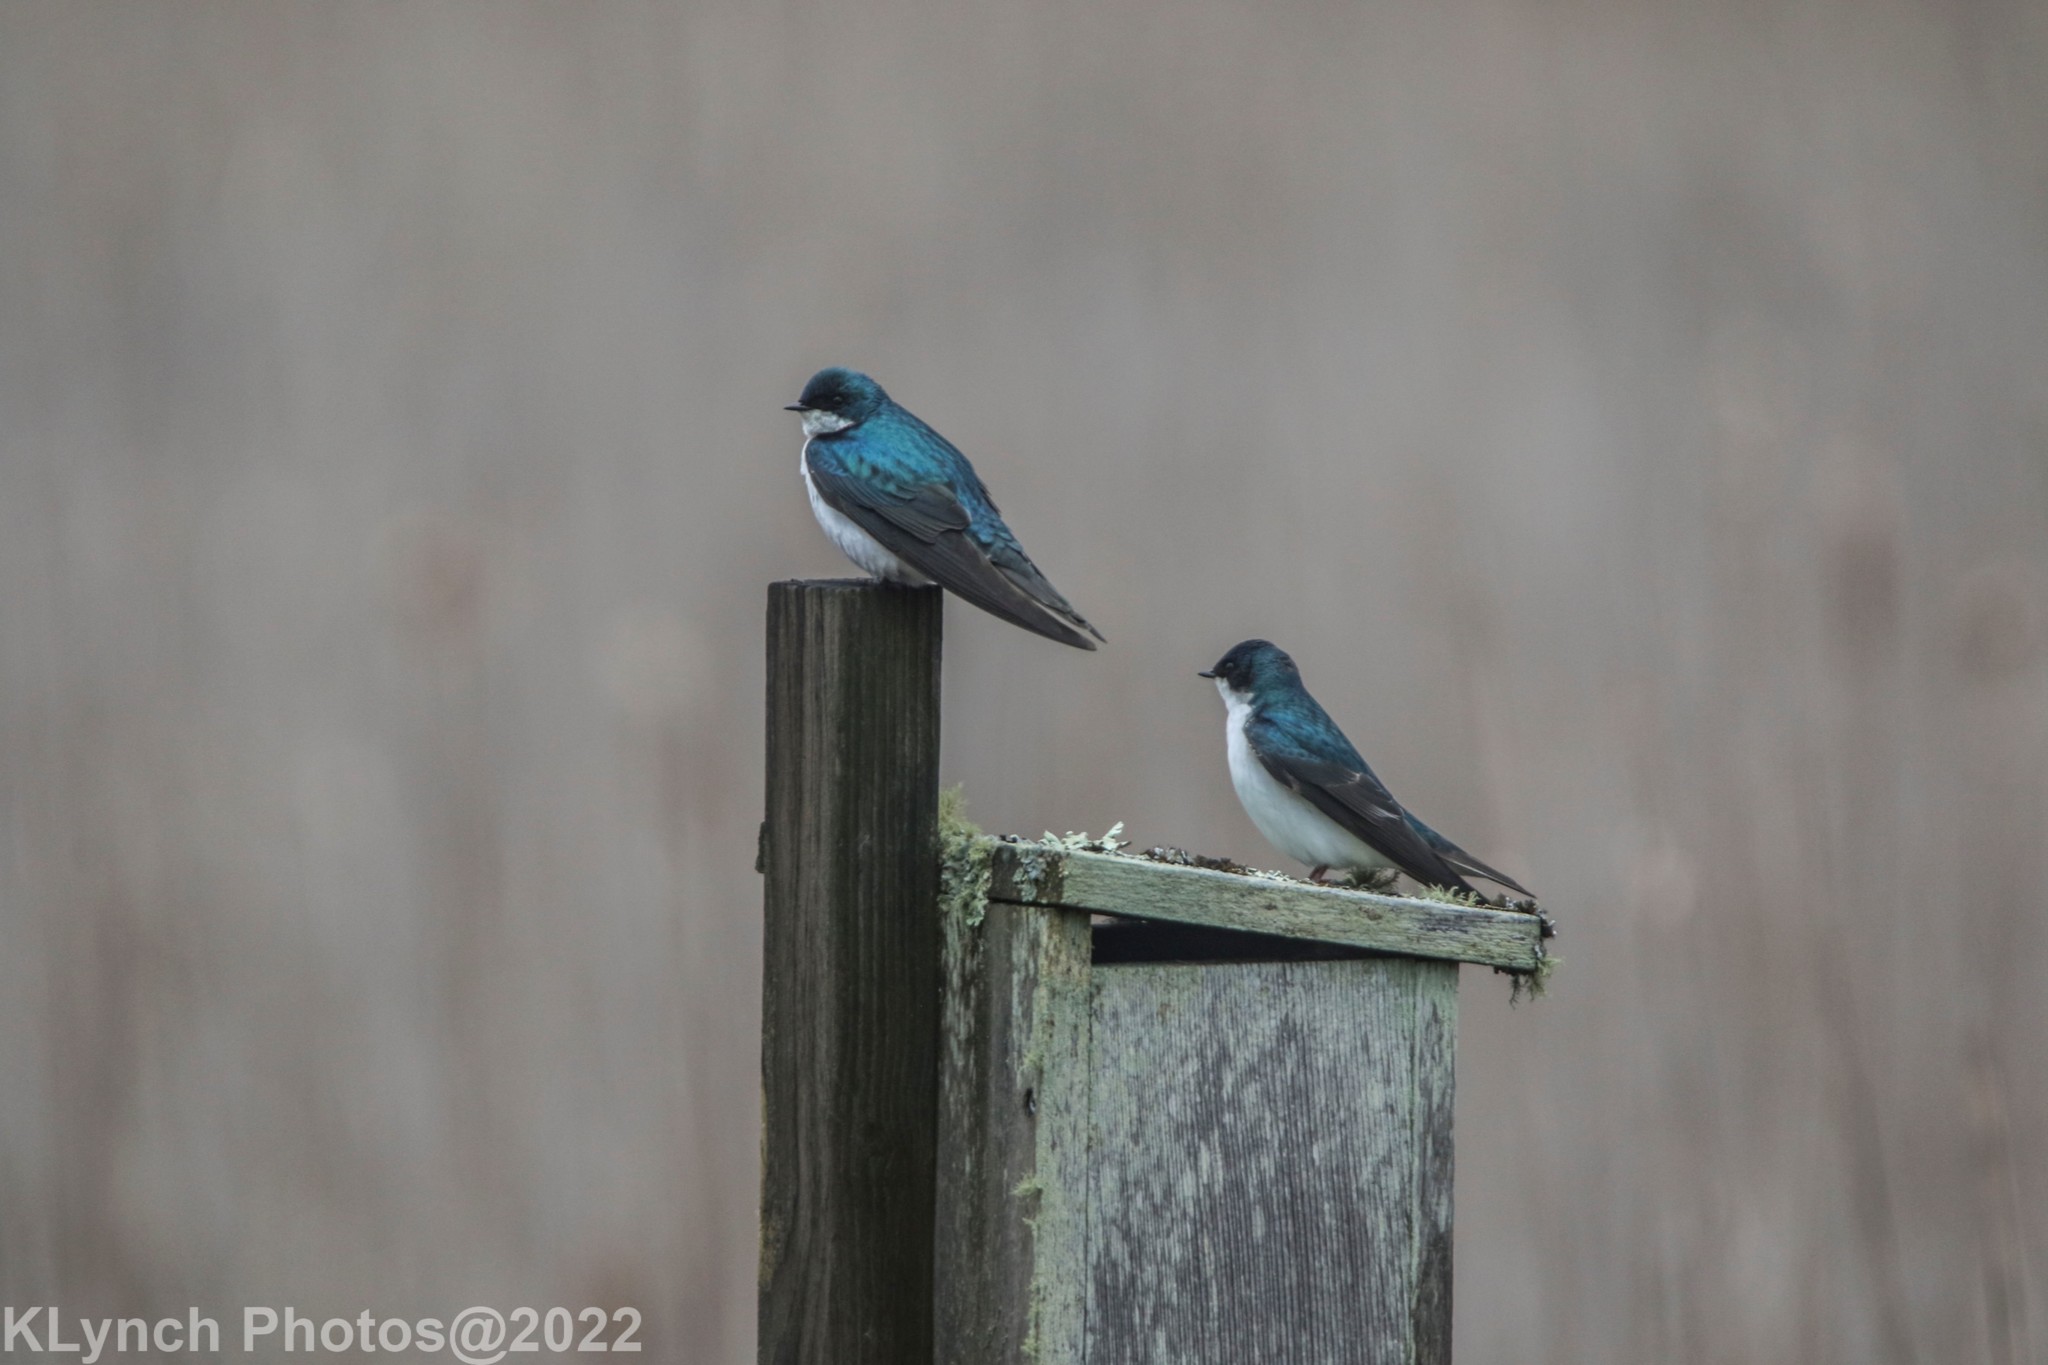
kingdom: Animalia
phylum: Chordata
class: Aves
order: Passeriformes
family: Hirundinidae
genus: Tachycineta
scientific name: Tachycineta bicolor
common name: Tree swallow
